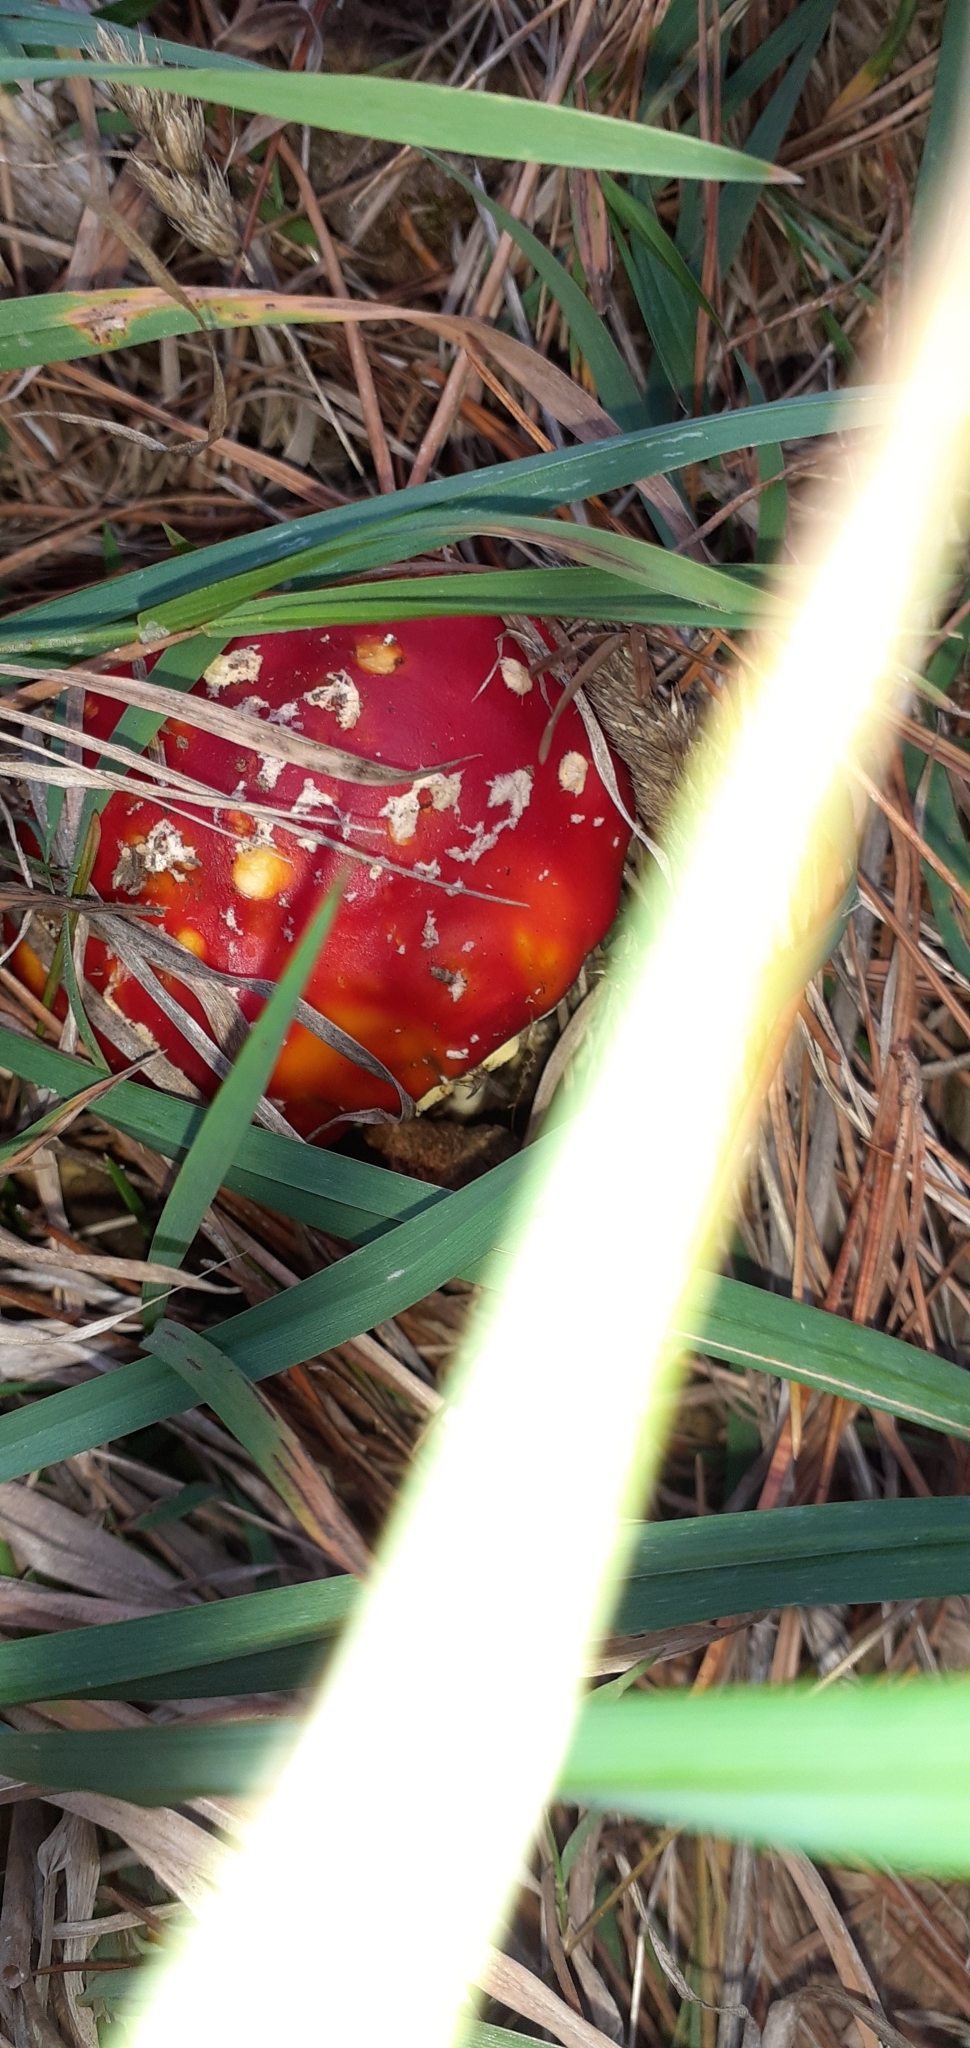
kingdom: Fungi
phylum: Basidiomycota
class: Agaricomycetes
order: Agaricales
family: Amanitaceae
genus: Amanita
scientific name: Amanita muscaria
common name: Fly agaric
